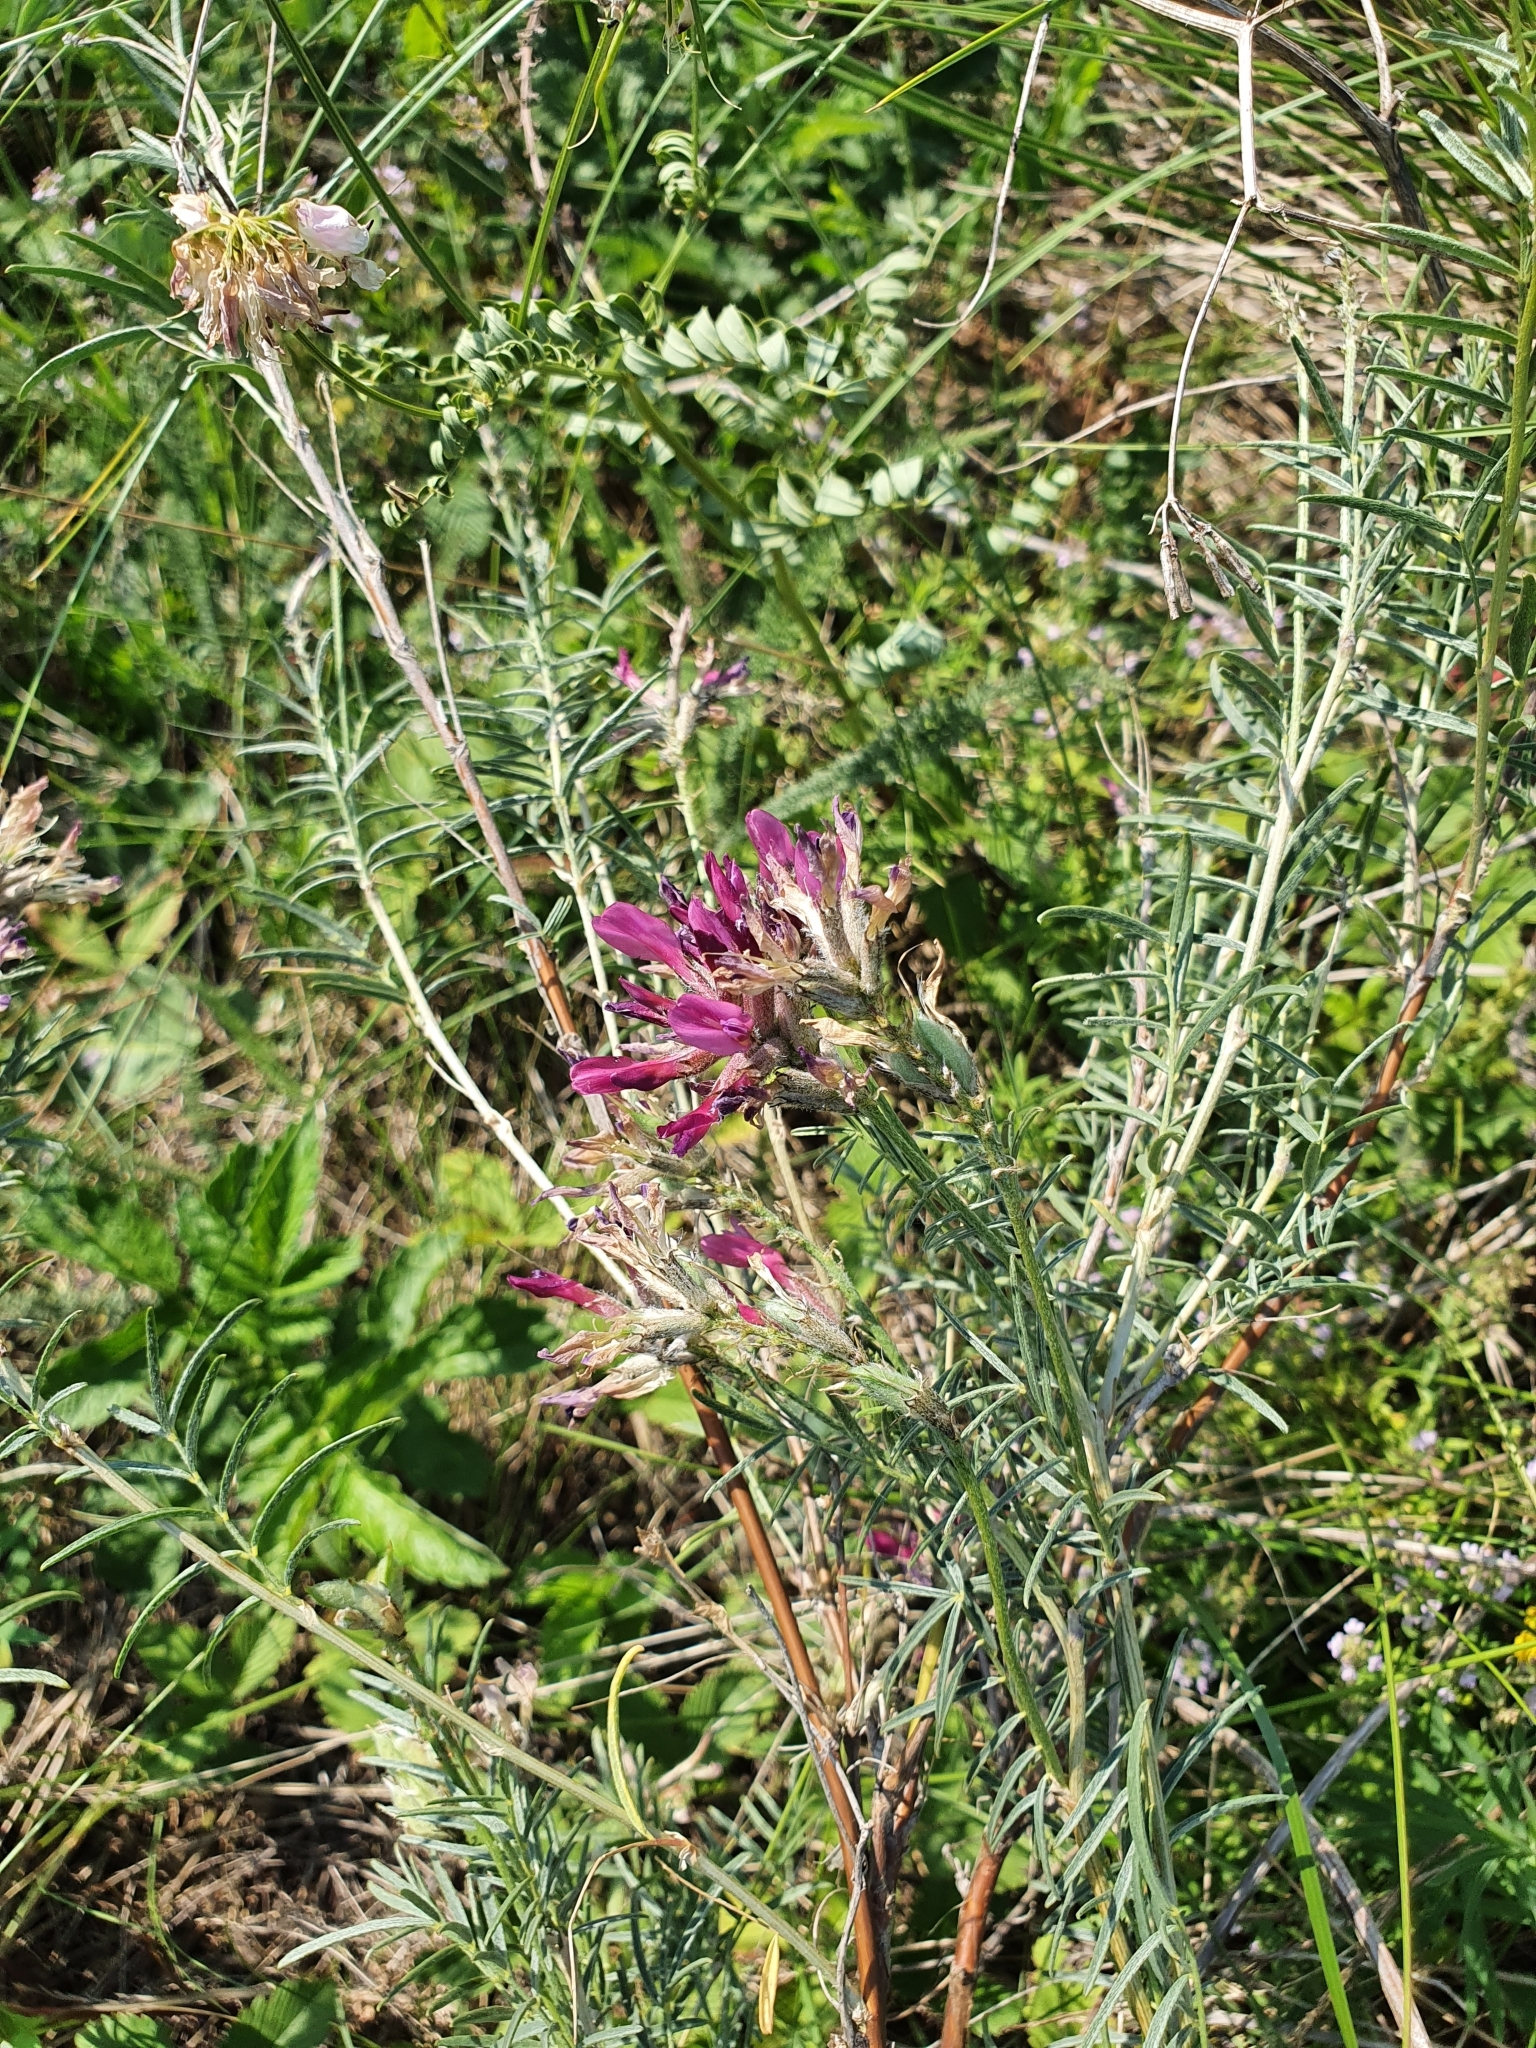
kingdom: Plantae
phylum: Tracheophyta
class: Magnoliopsida
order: Fabales
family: Fabaceae
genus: Astragalus
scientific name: Astragalus cornutus
